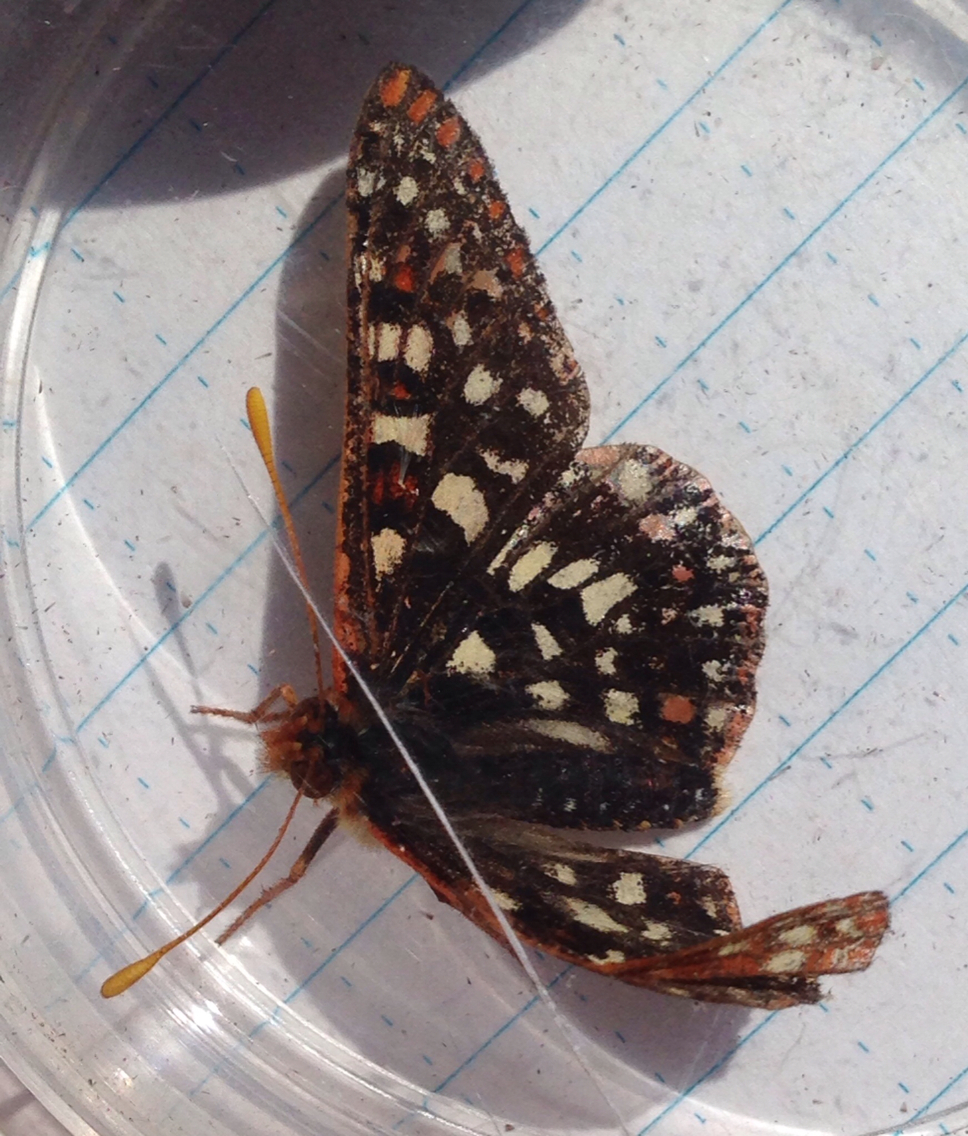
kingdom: Animalia
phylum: Arthropoda
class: Insecta
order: Lepidoptera
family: Nymphalidae
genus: Occidryas
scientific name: Occidryas chalcedona
